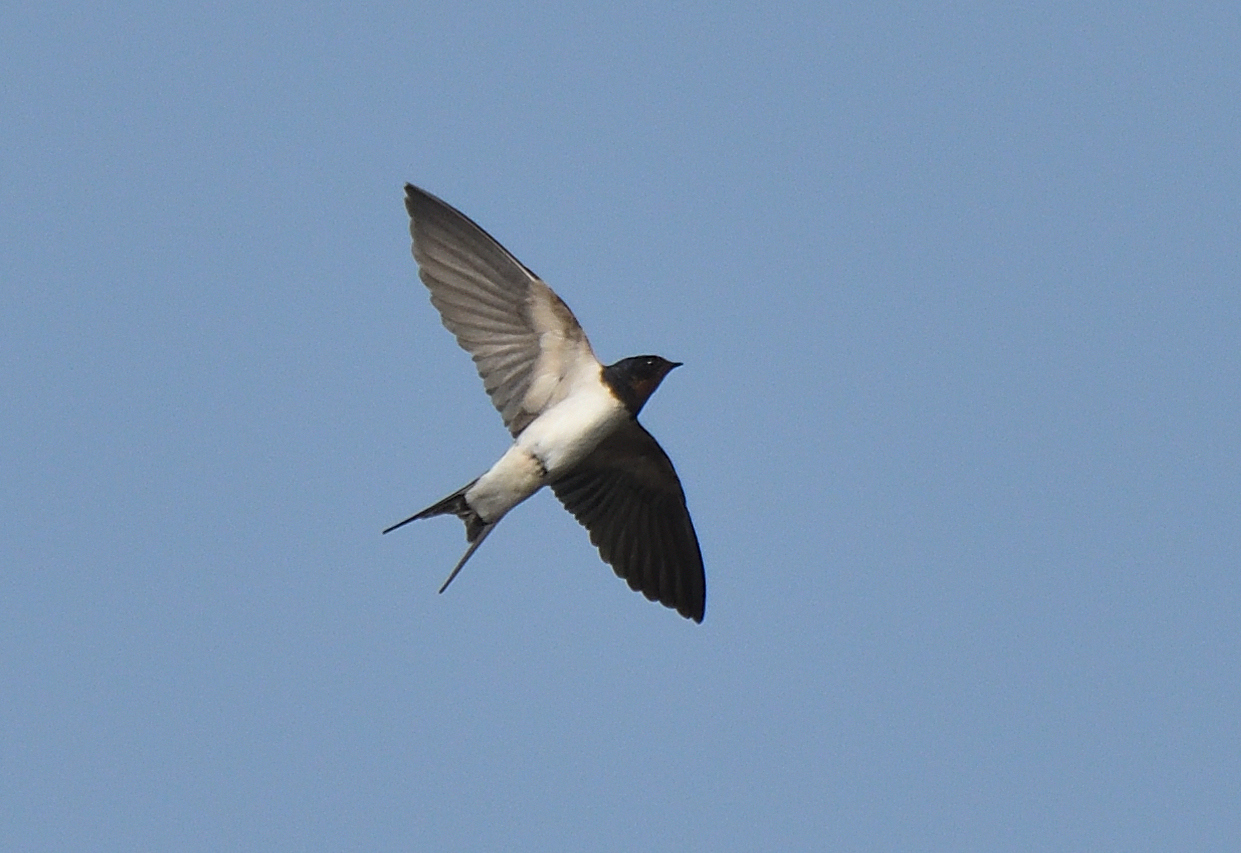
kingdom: Animalia
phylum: Chordata
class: Aves
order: Passeriformes
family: Hirundinidae
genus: Hirundo
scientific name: Hirundo rustica
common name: Barn swallow
